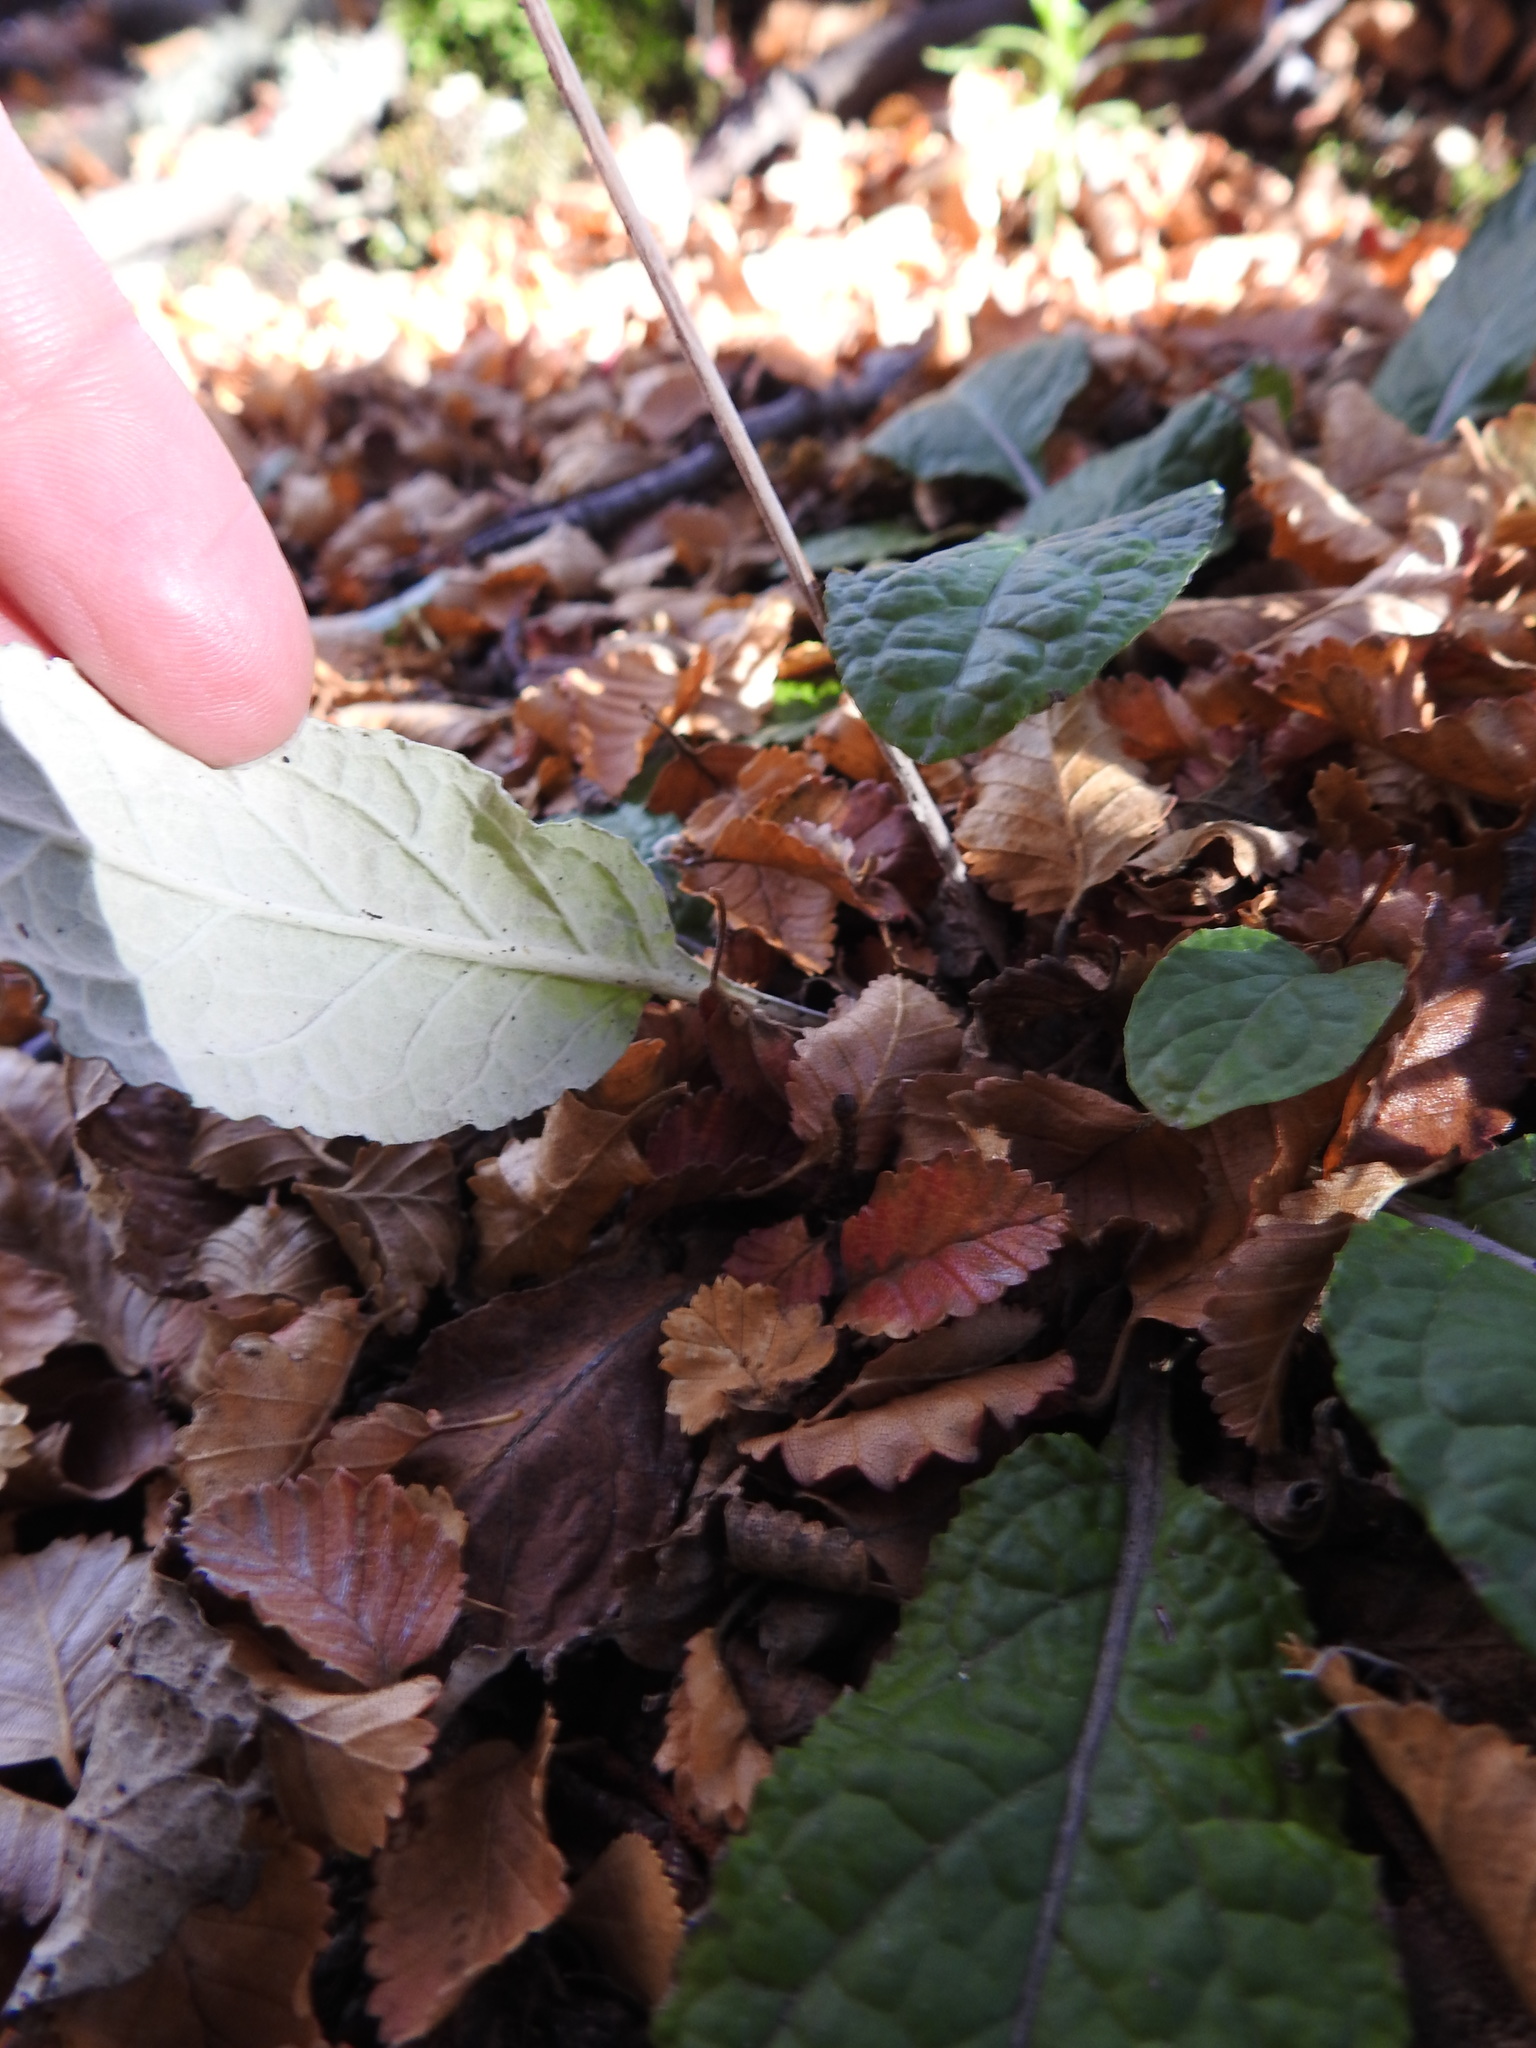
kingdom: Plantae
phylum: Tracheophyta
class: Magnoliopsida
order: Asterales
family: Asteraceae
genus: Adenocaulon
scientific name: Adenocaulon chilense
